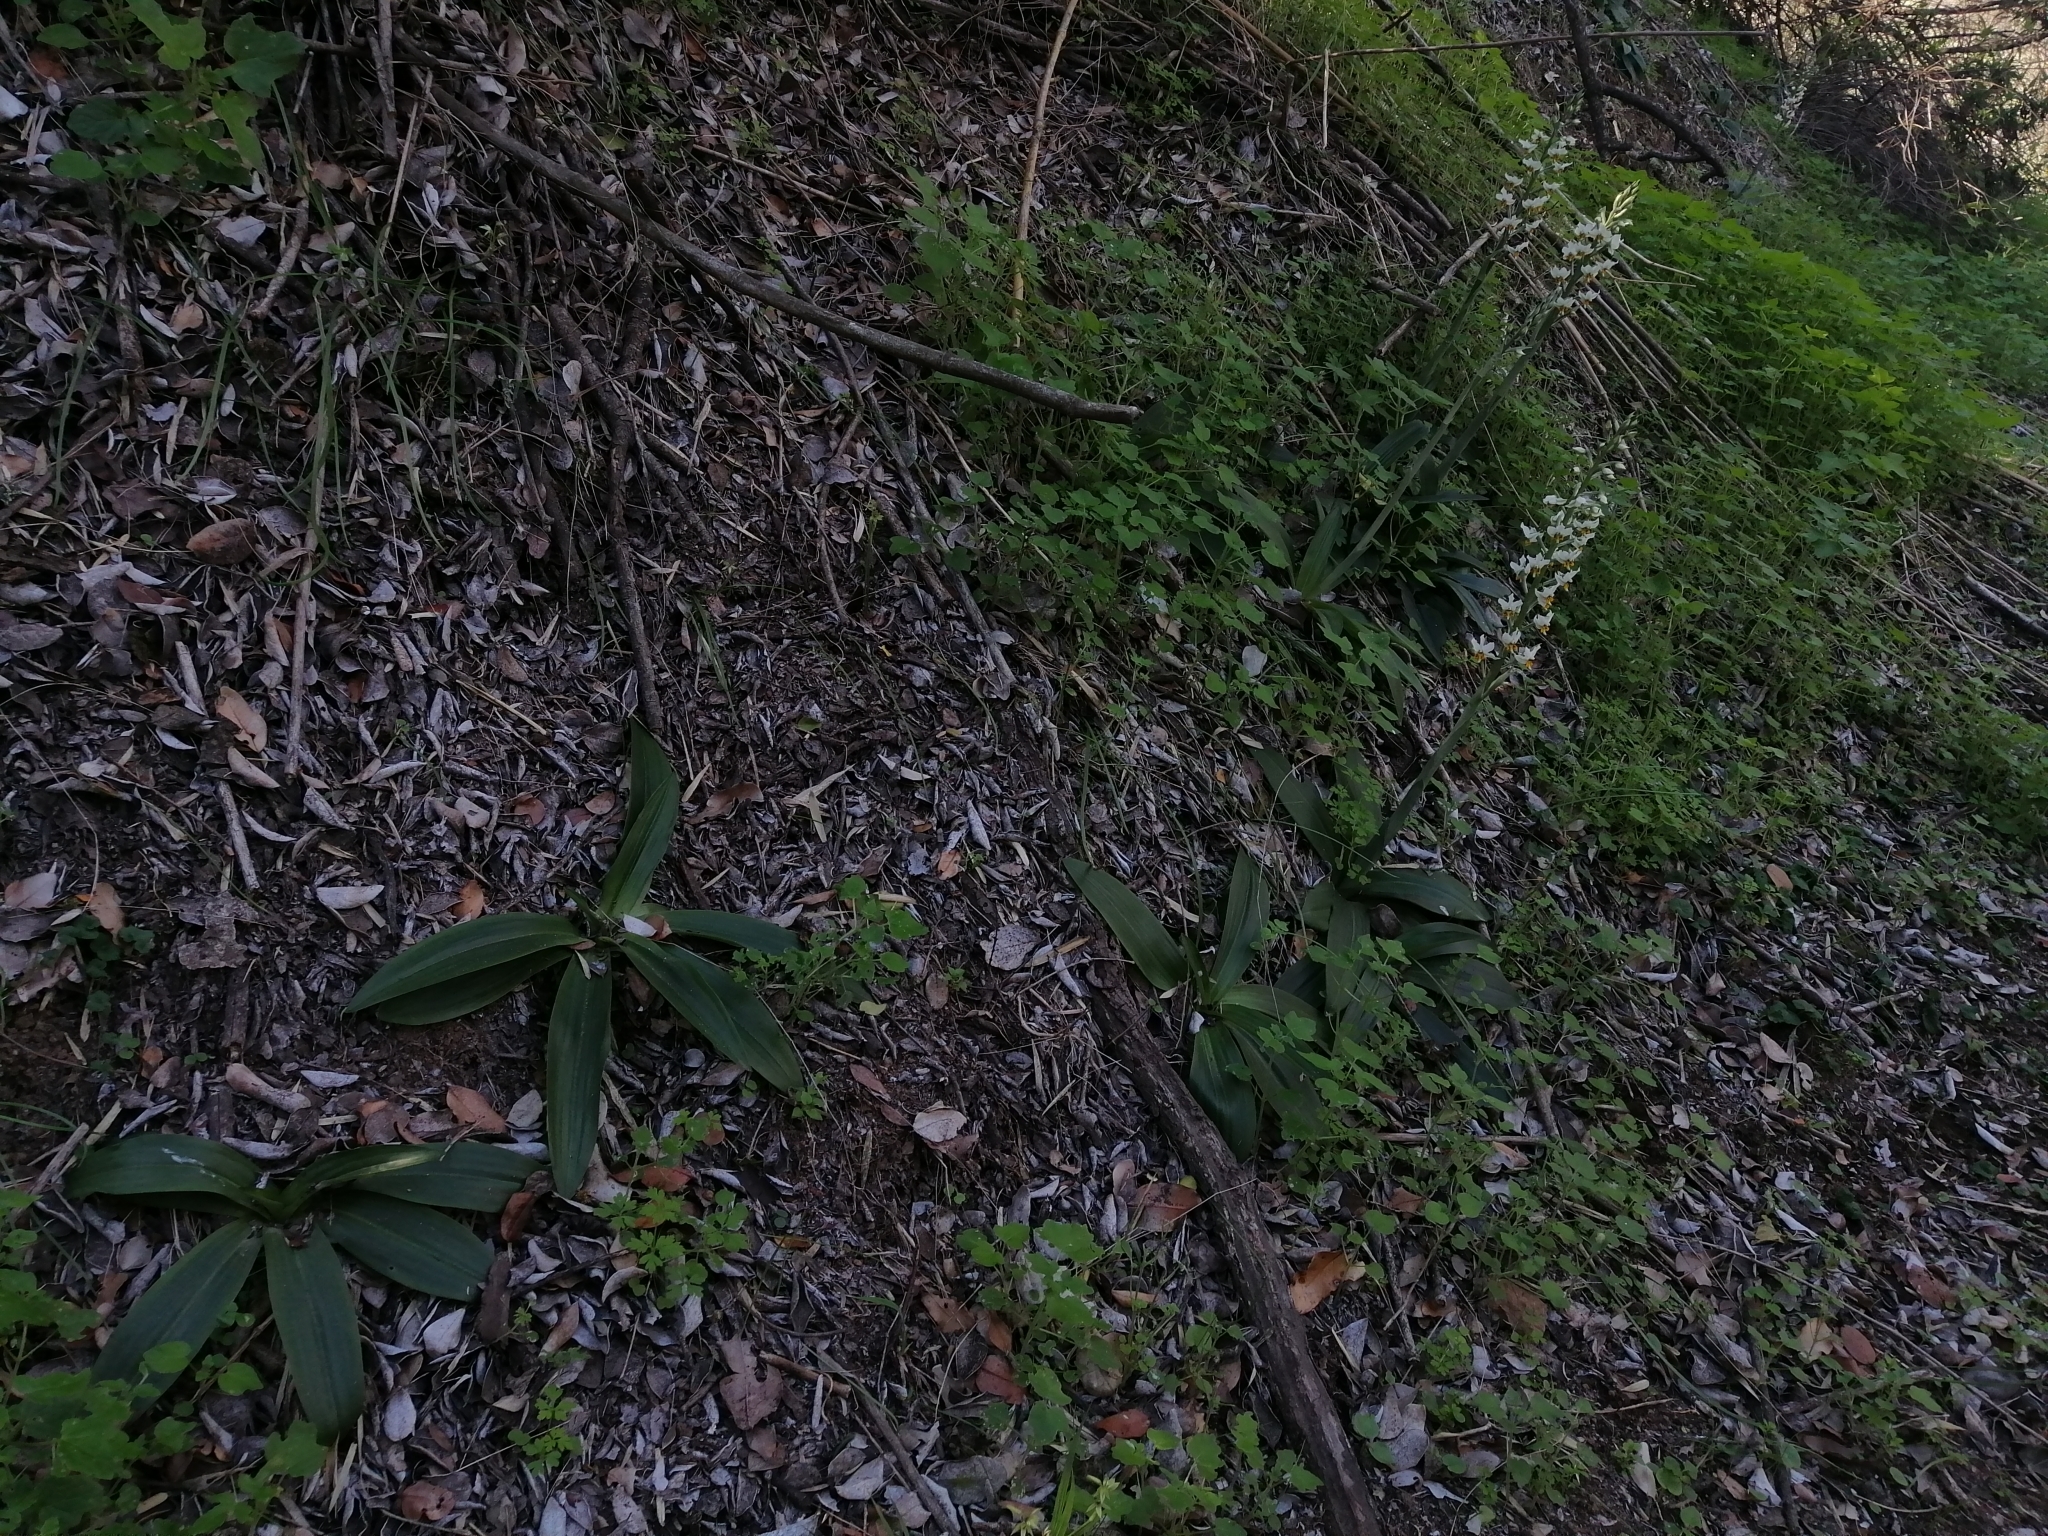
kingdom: Plantae
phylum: Tracheophyta
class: Liliopsida
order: Asparagales
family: Orchidaceae
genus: Gavilea
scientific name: Gavilea longibracteata
